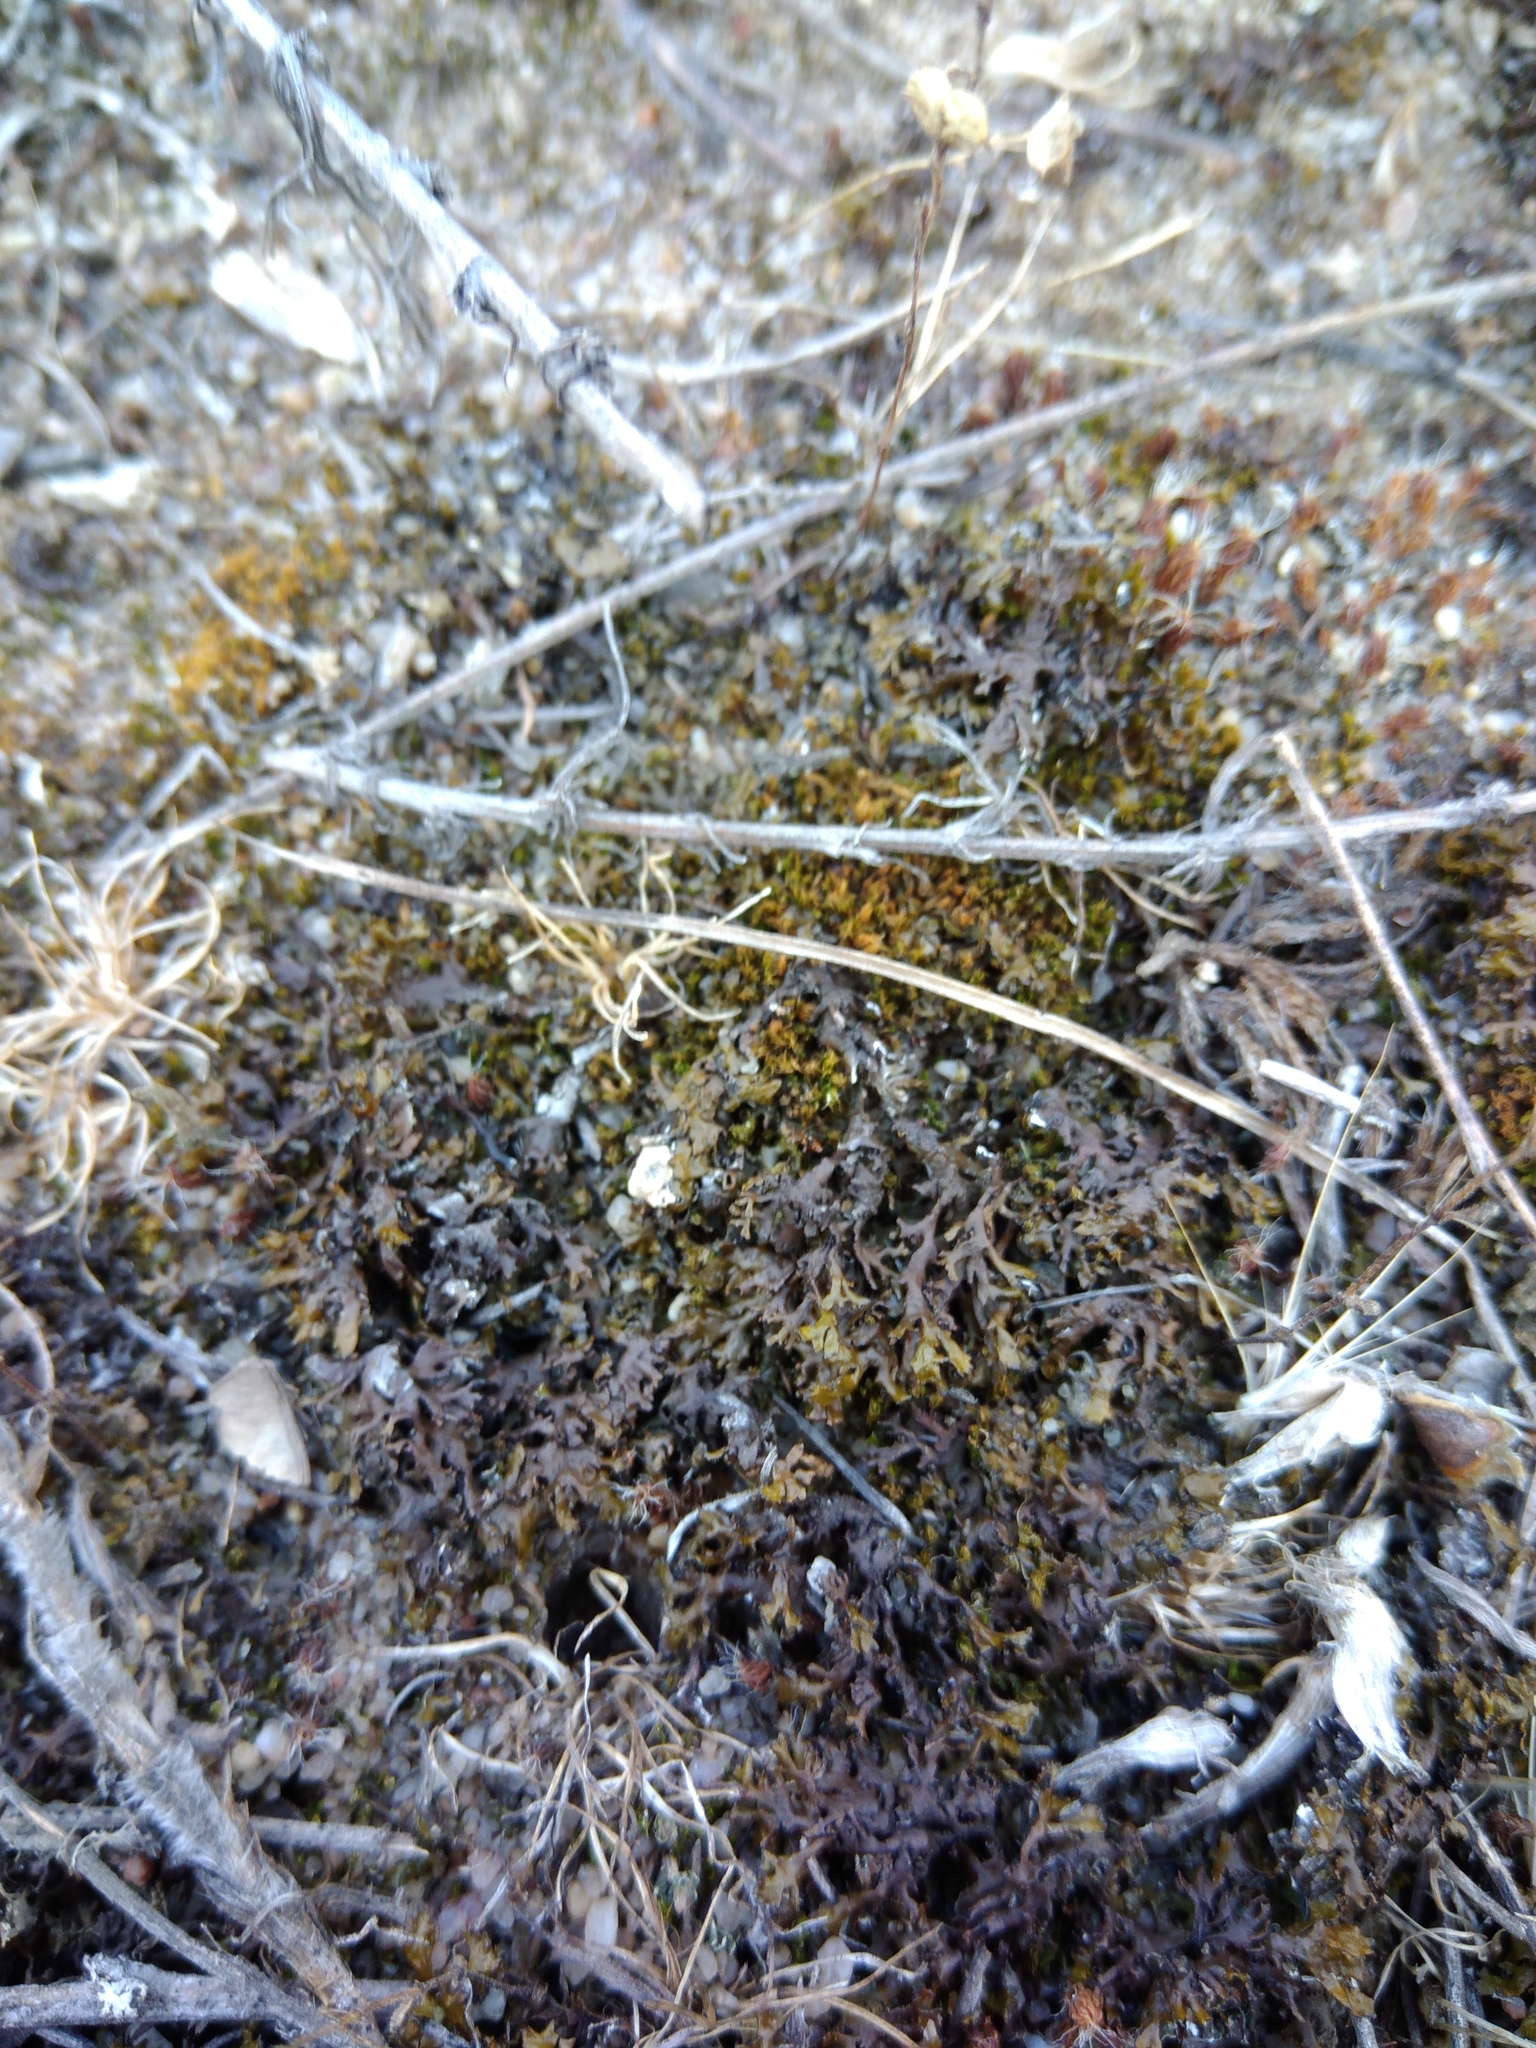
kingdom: Fungi
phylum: Ascomycota
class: Lecanoromycetes
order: Lecanorales
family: Parmeliaceae
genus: Xanthoparmelia
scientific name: Xanthoparmelia pokornyi
